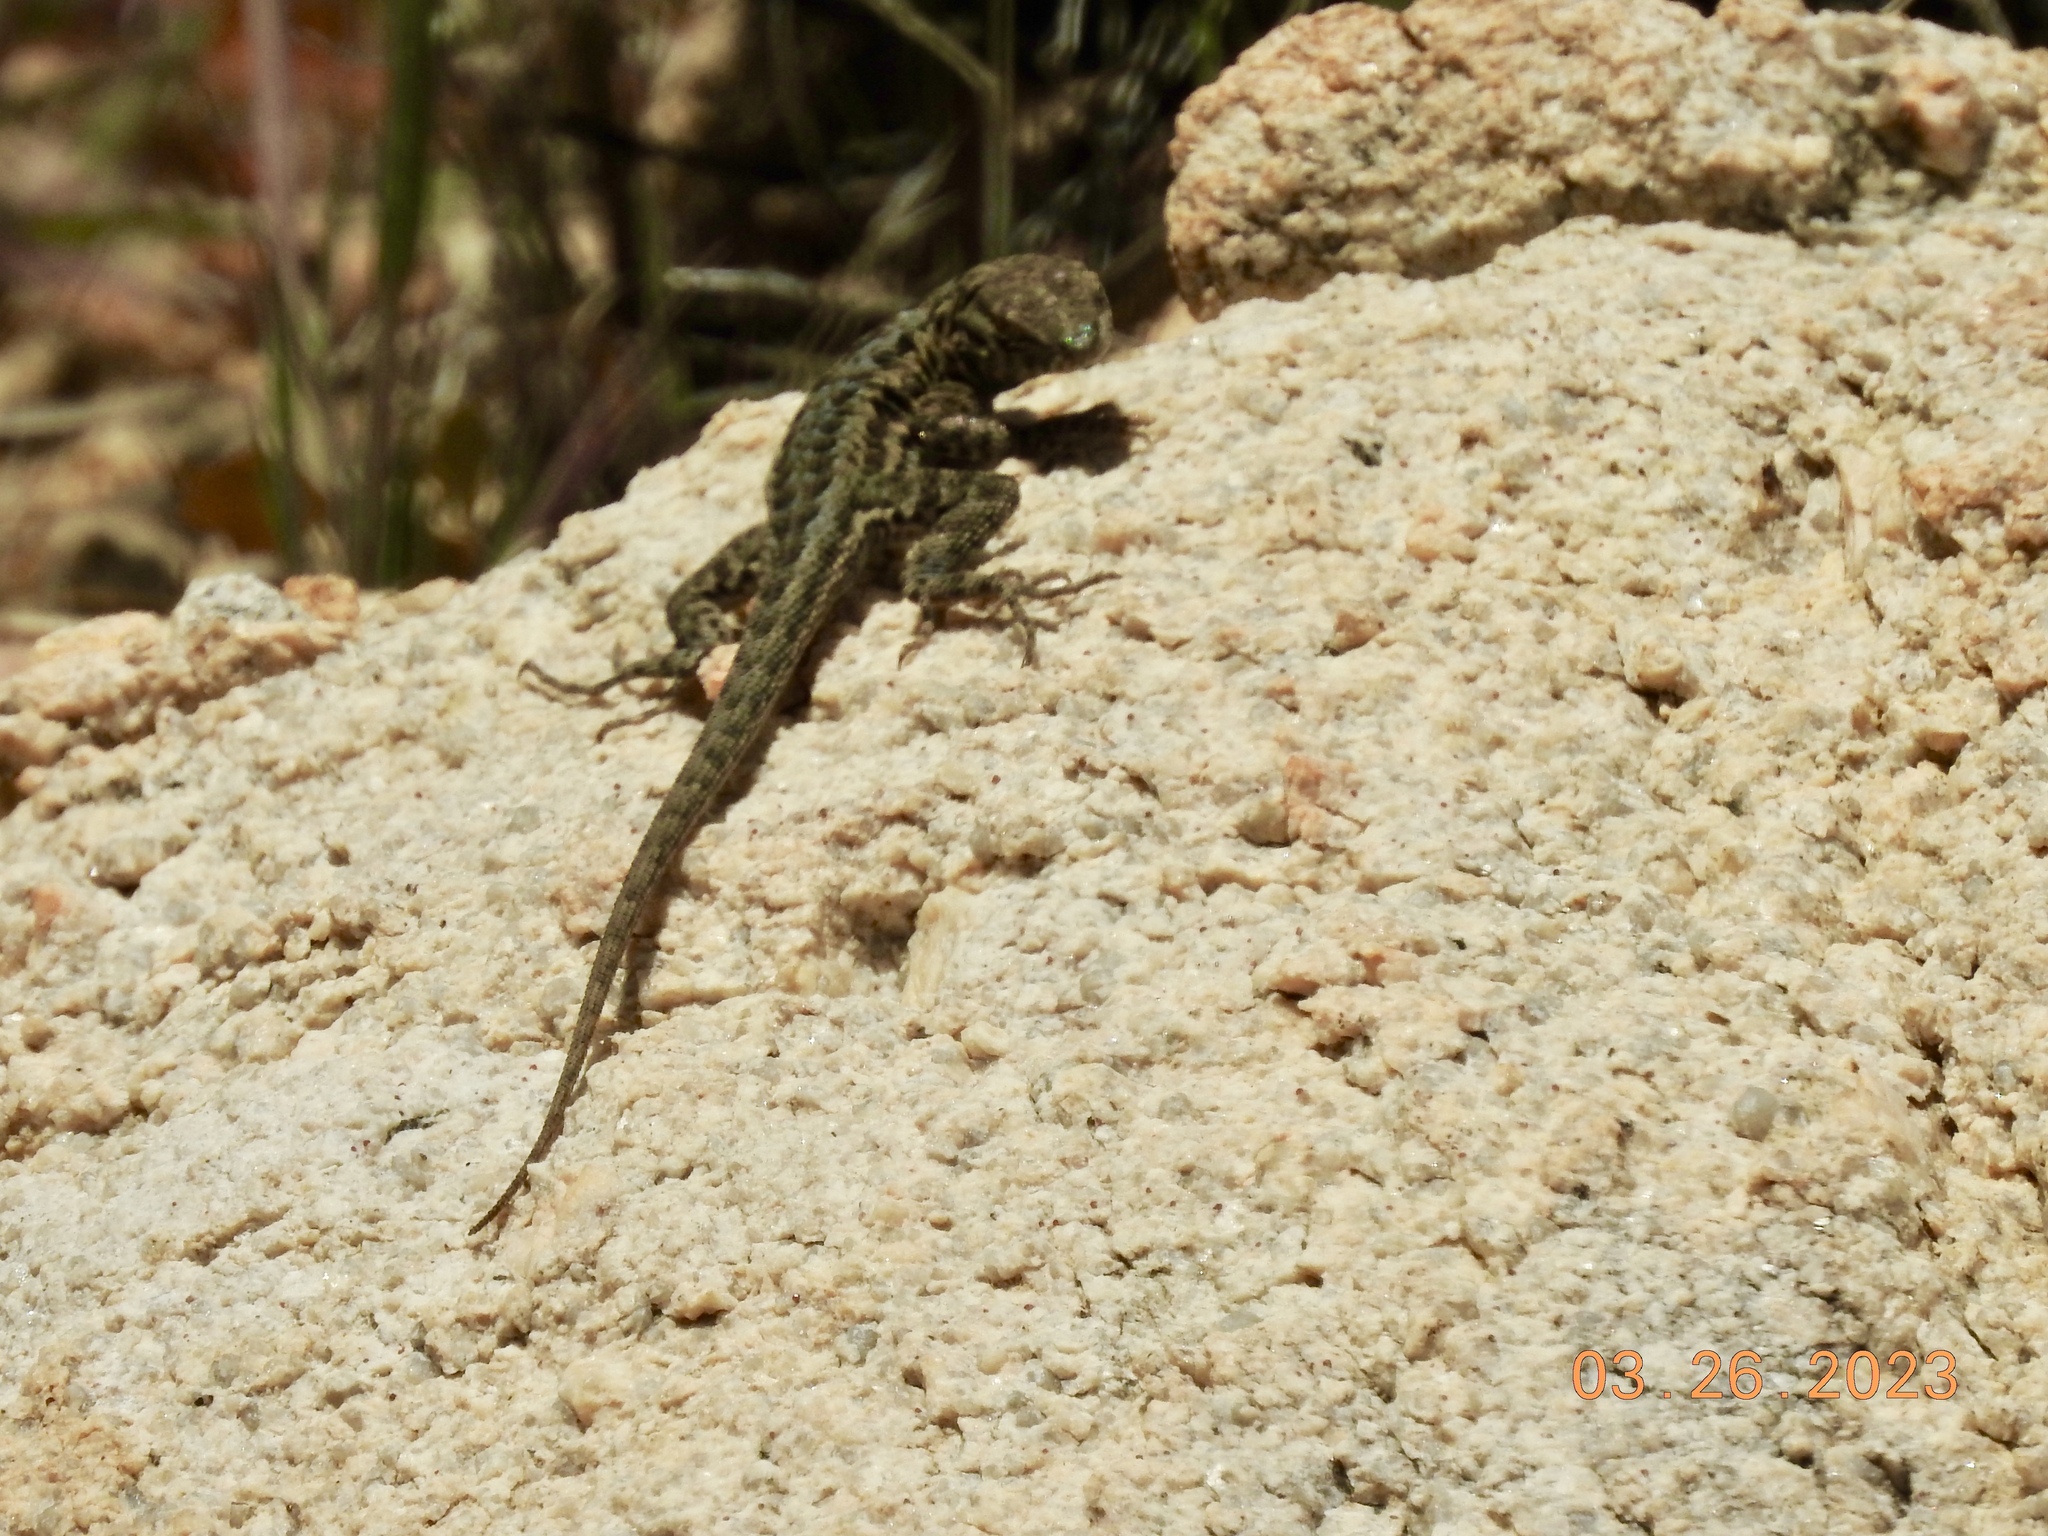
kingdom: Animalia
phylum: Chordata
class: Squamata
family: Phrynosomatidae
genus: Uta
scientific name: Uta stansburiana
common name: Side-blotched lizard
